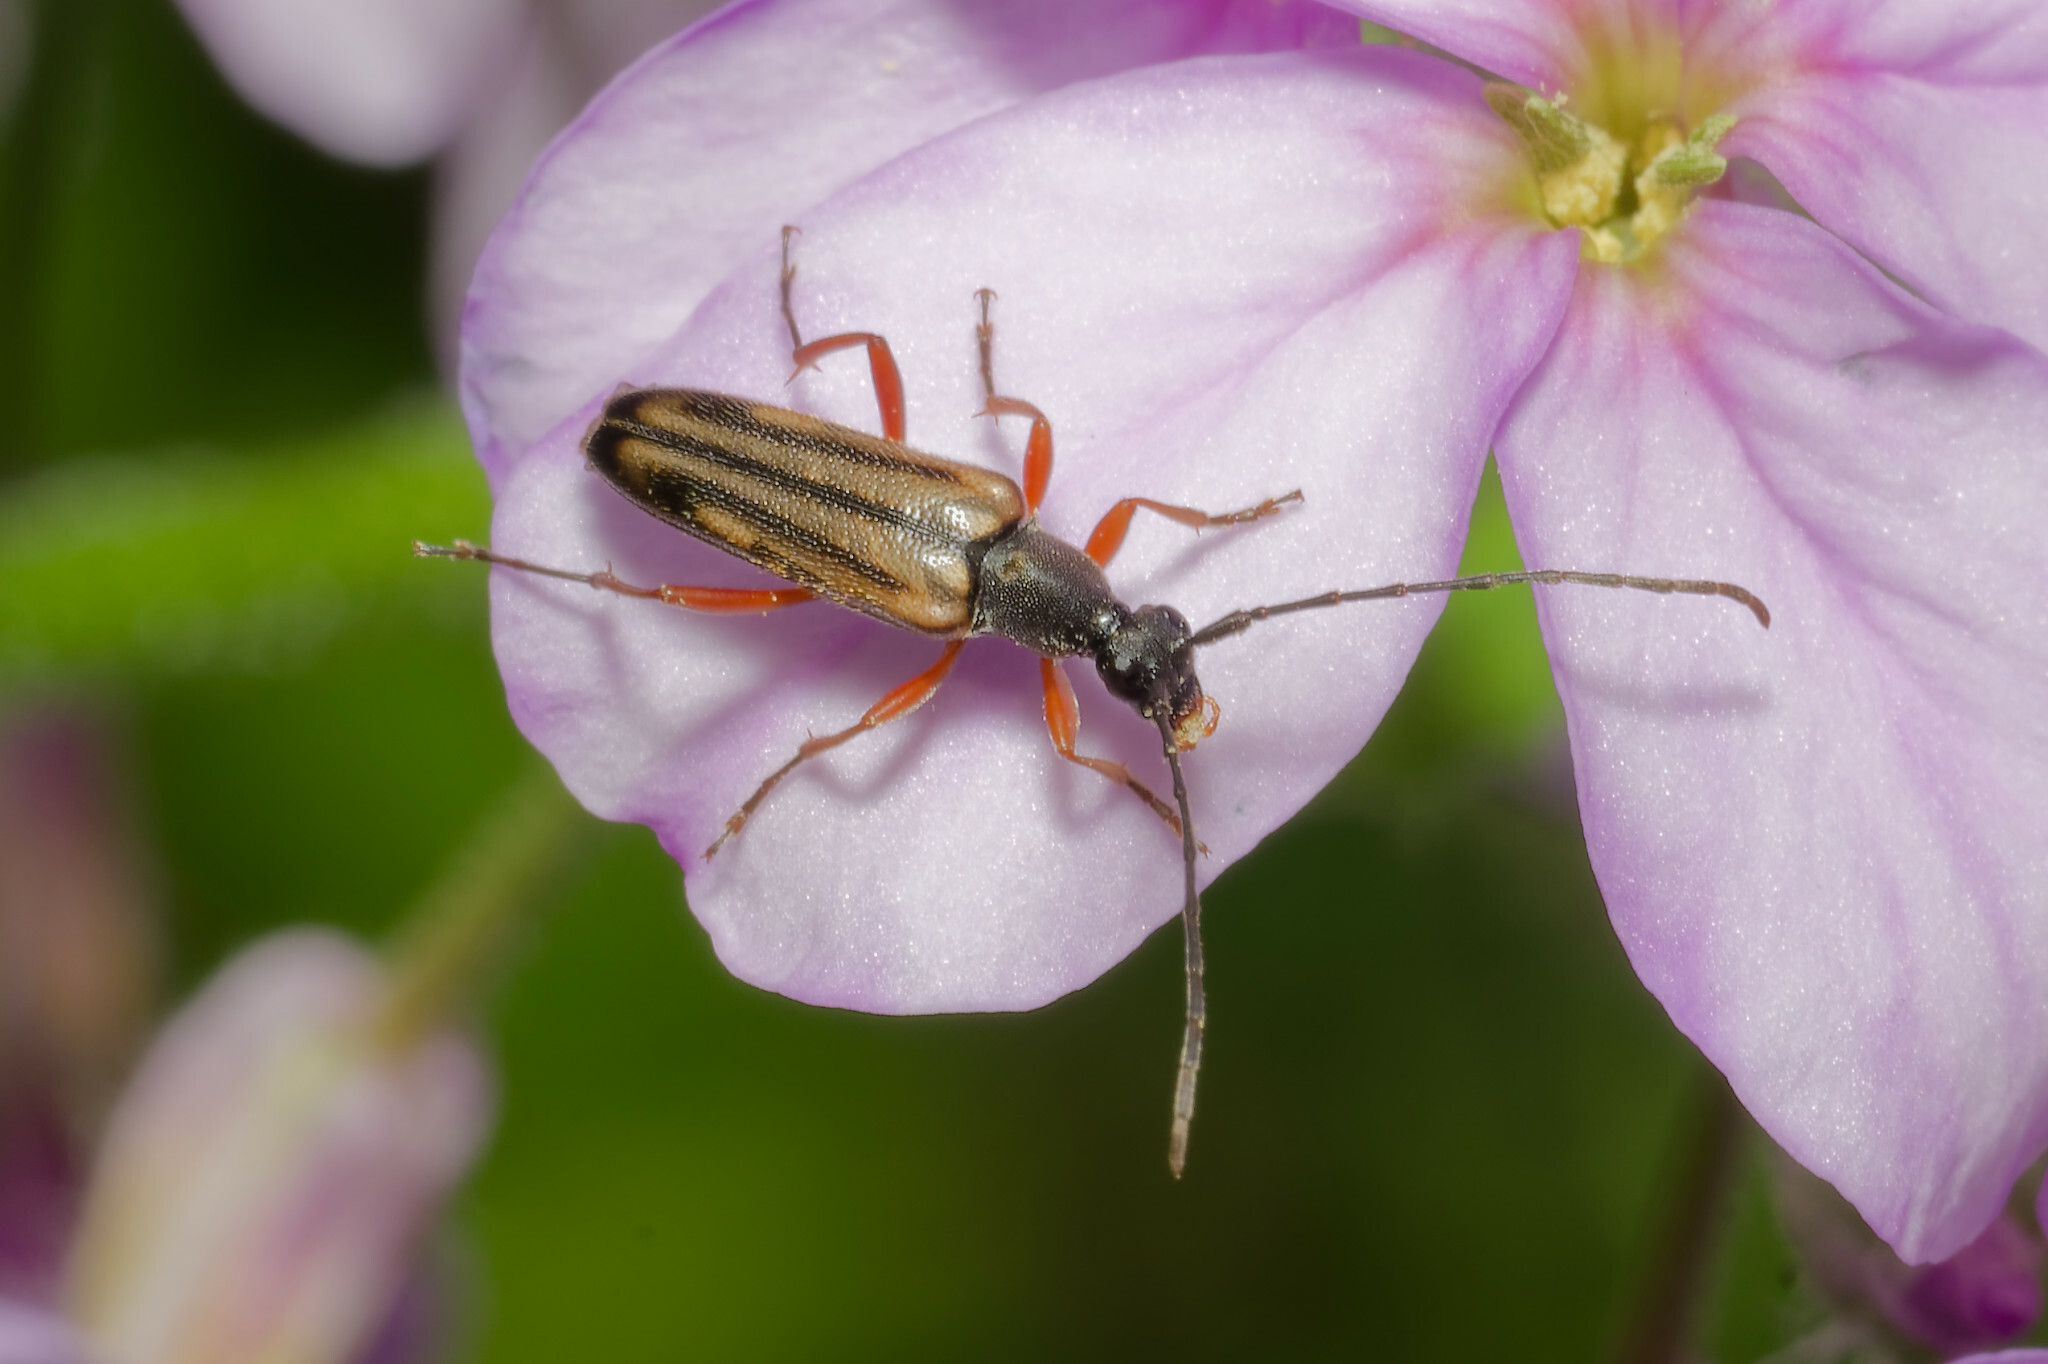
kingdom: Animalia
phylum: Arthropoda
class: Insecta
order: Coleoptera
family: Cerambycidae
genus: Analeptura
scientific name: Analeptura lineola
